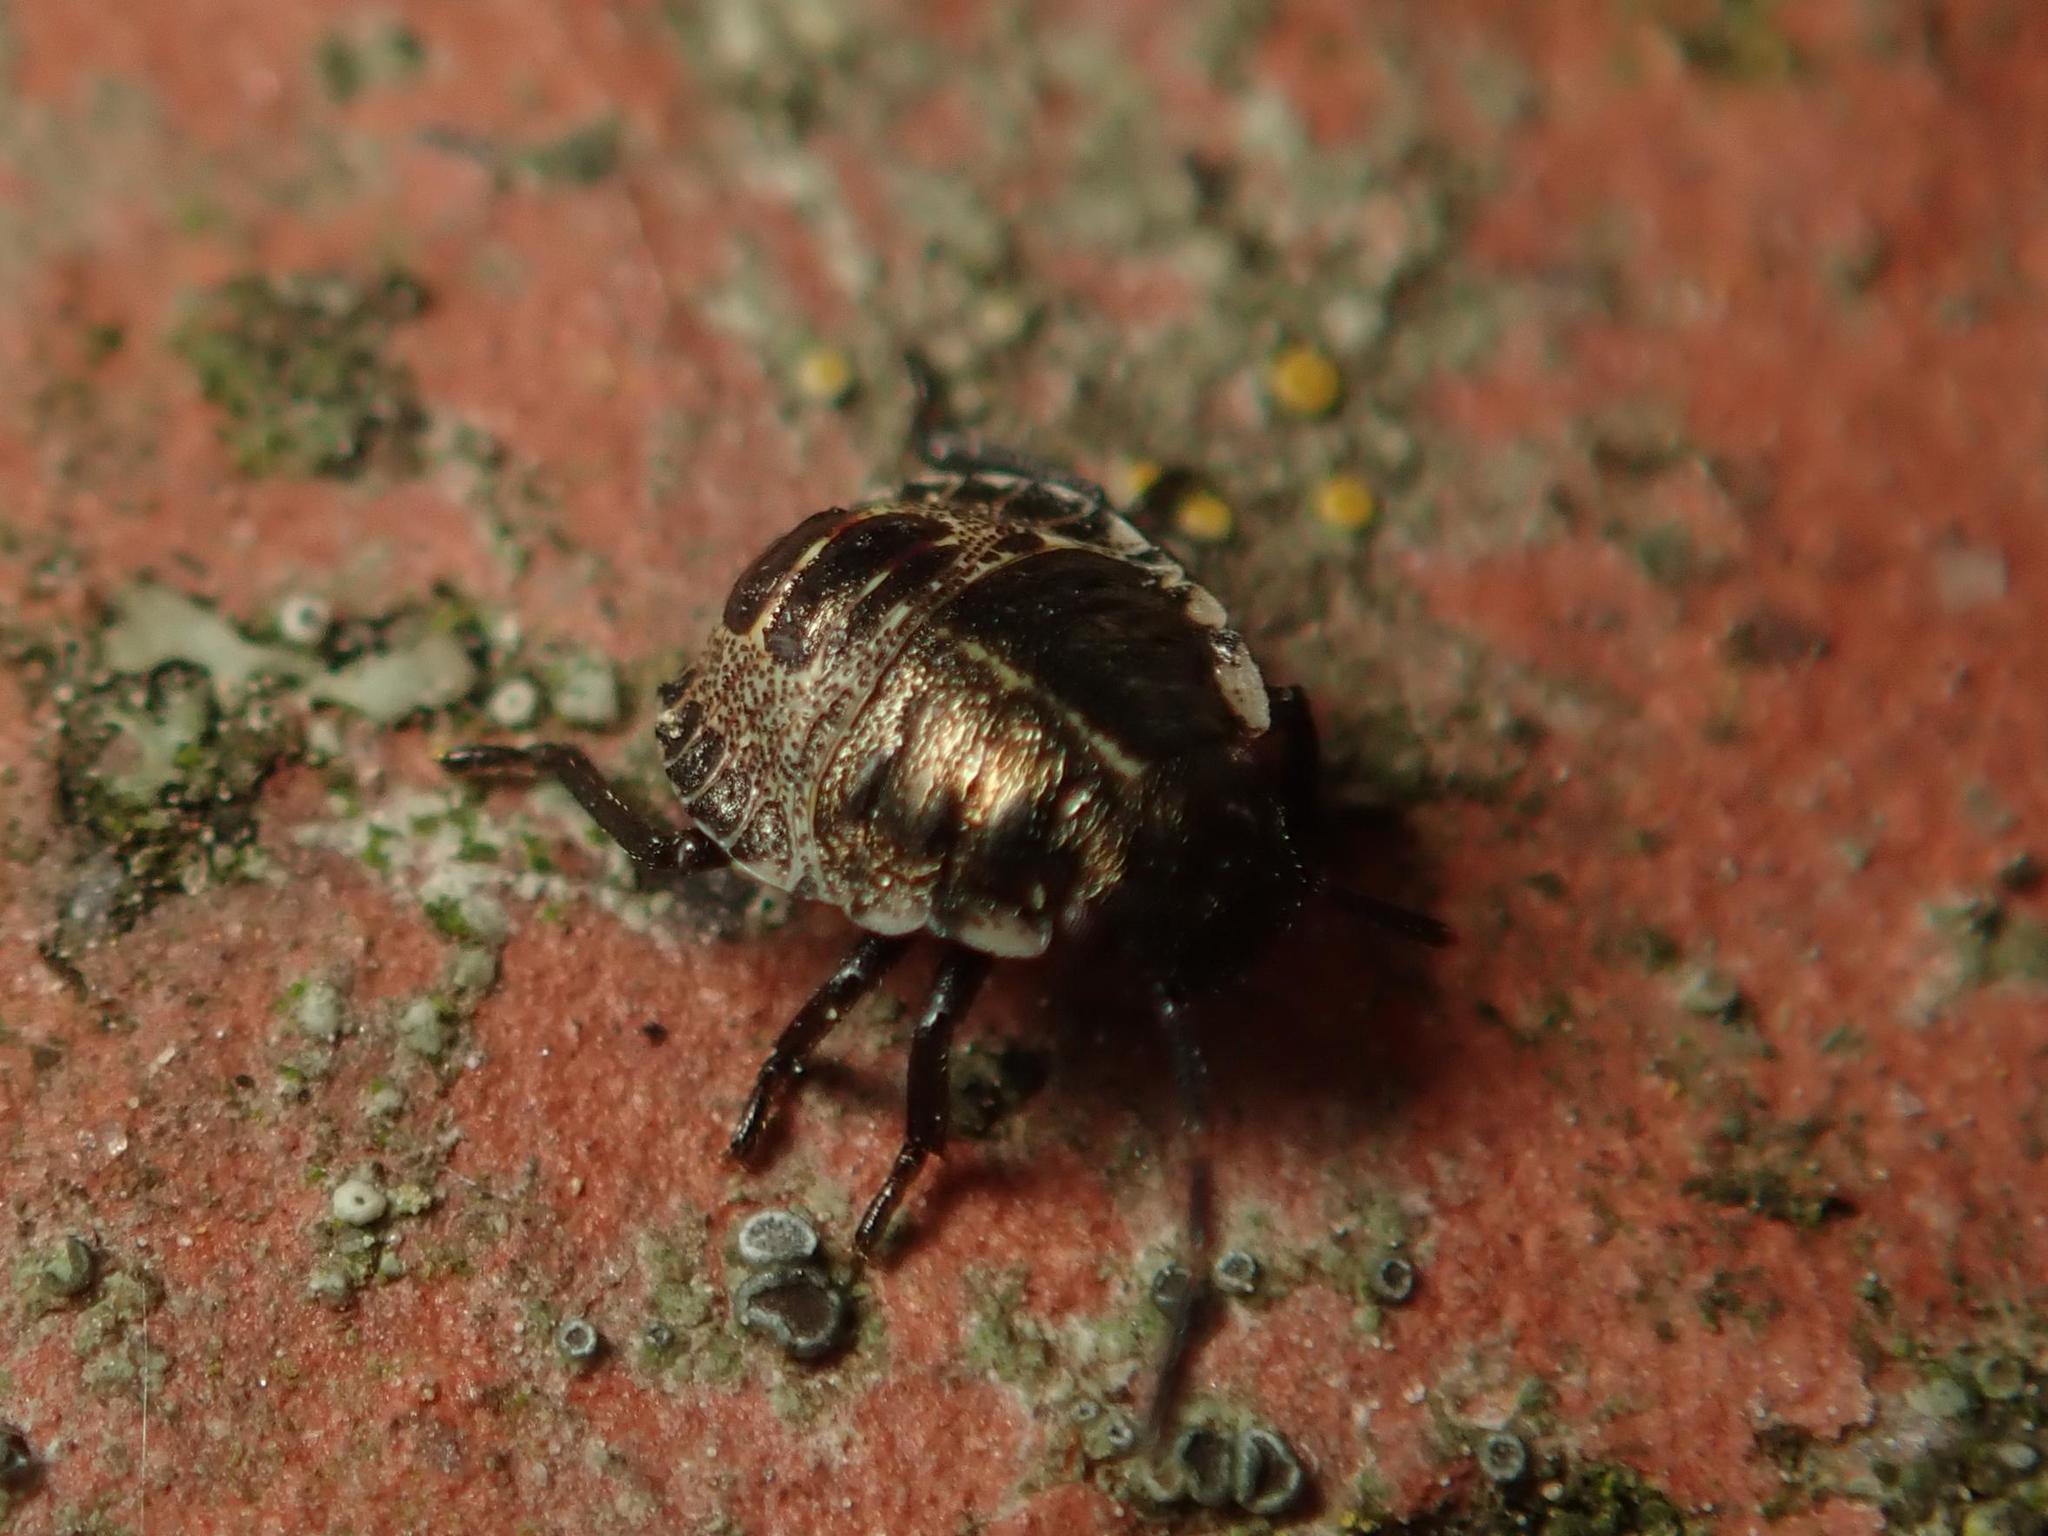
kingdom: Animalia
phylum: Arthropoda
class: Insecta
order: Hemiptera
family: Pentatomidae
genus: Pentatoma
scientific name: Pentatoma rufipes
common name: Forest bug
